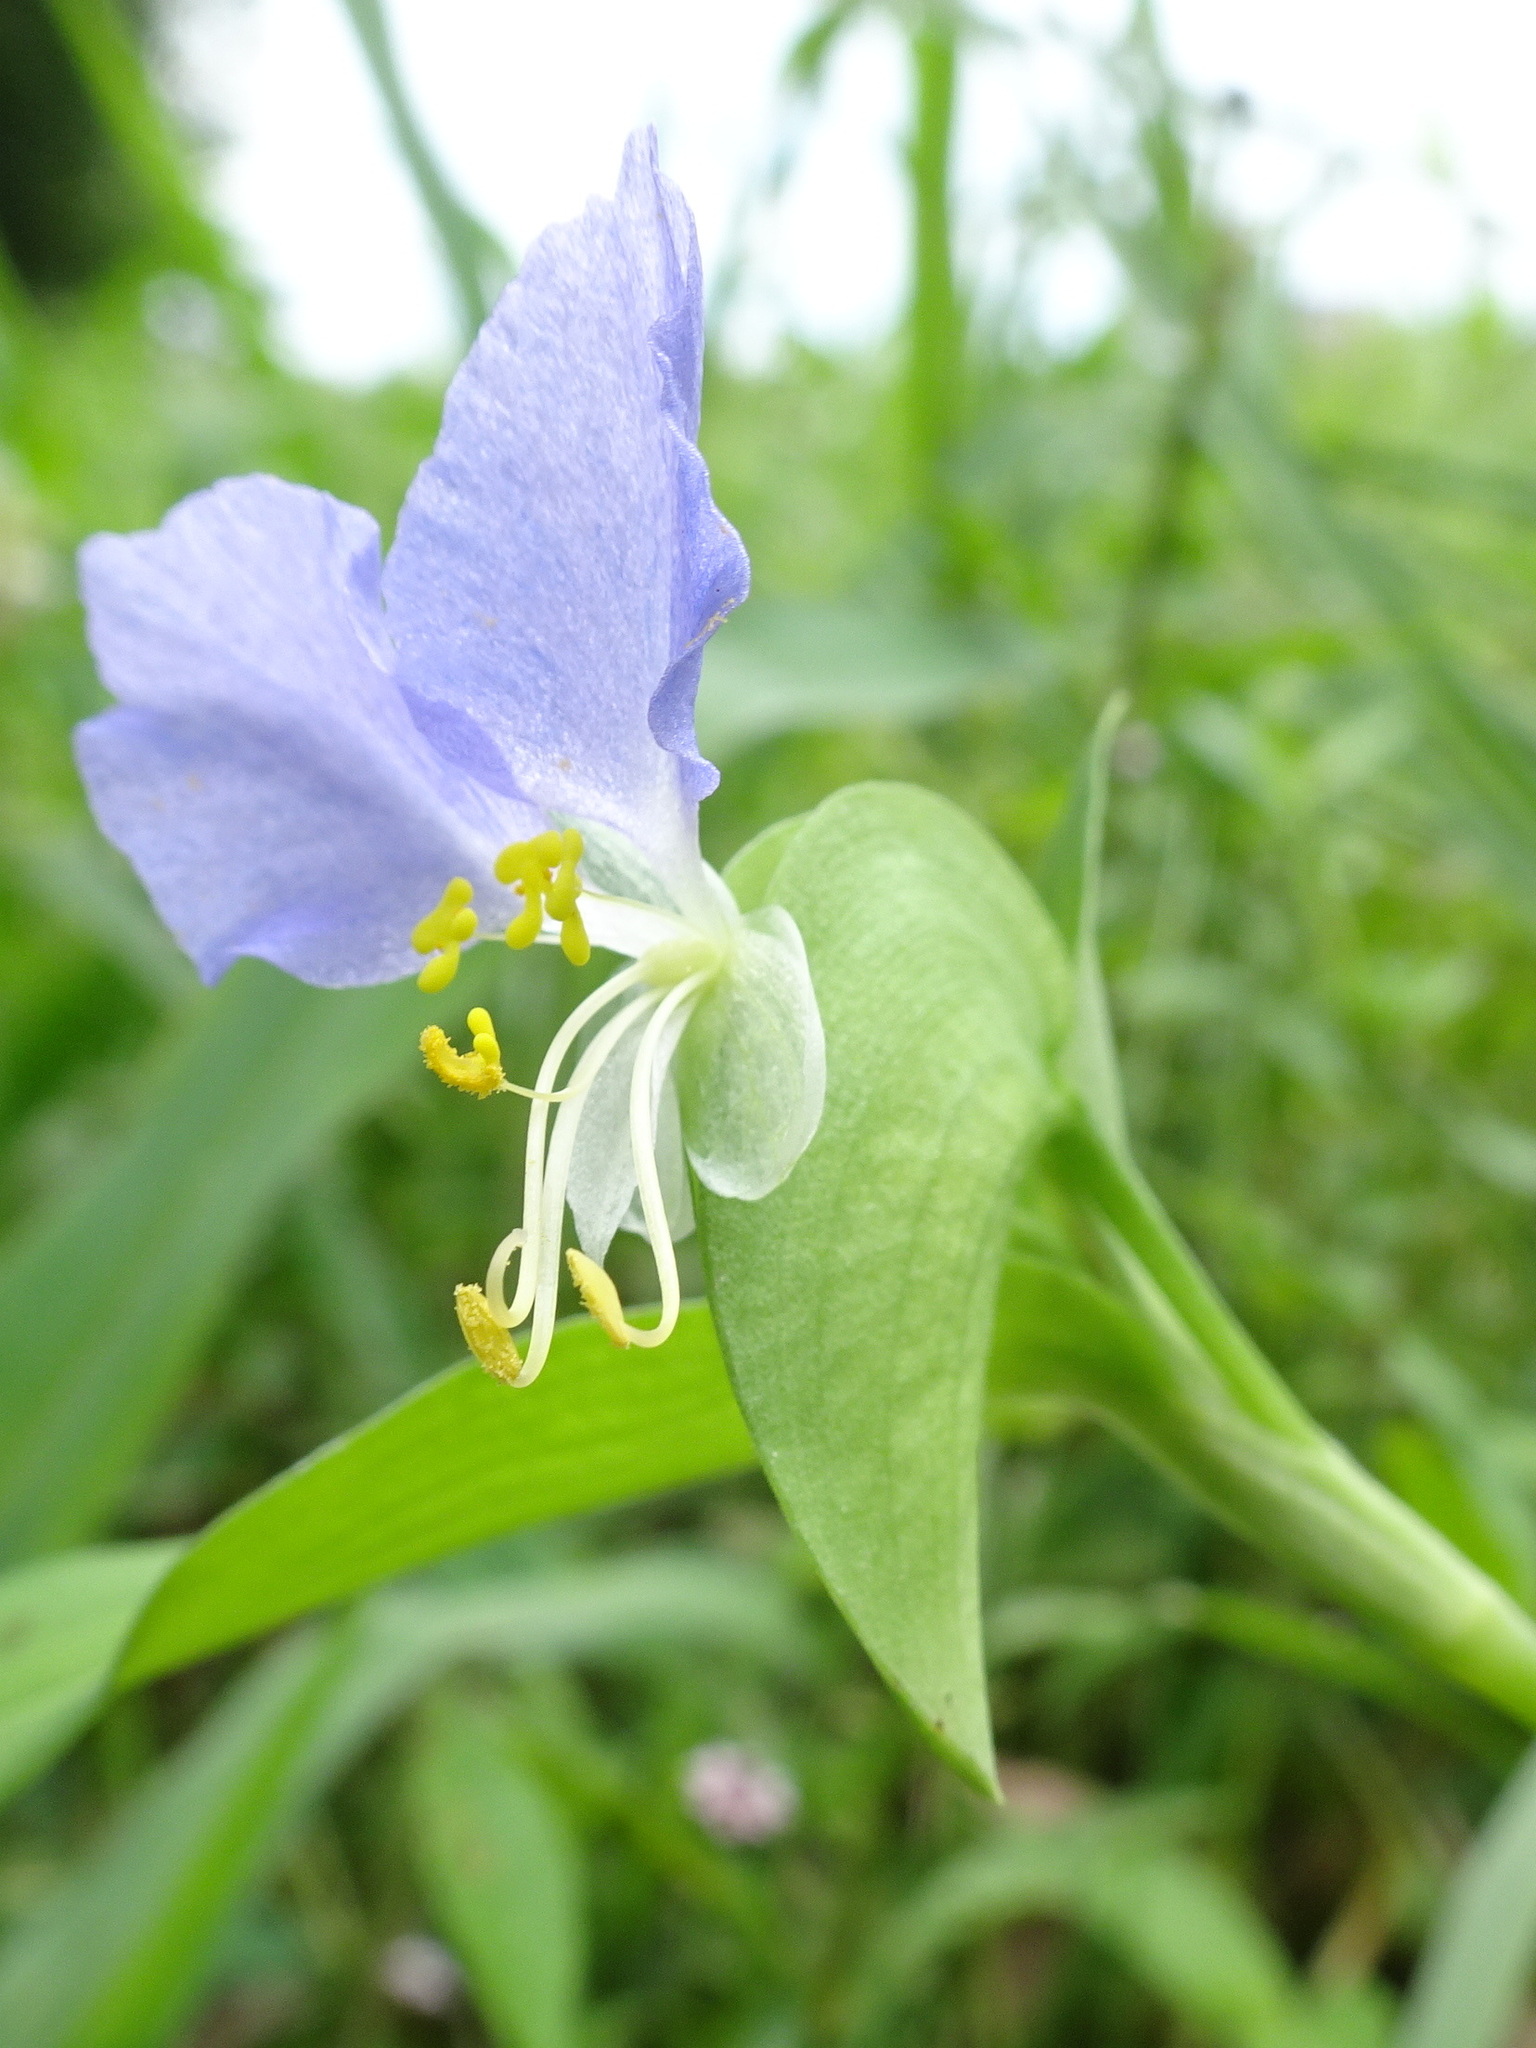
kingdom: Plantae
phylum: Tracheophyta
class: Liliopsida
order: Commelinales
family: Commelinaceae
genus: Commelina
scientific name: Commelina erecta
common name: Blousel blommetjie
